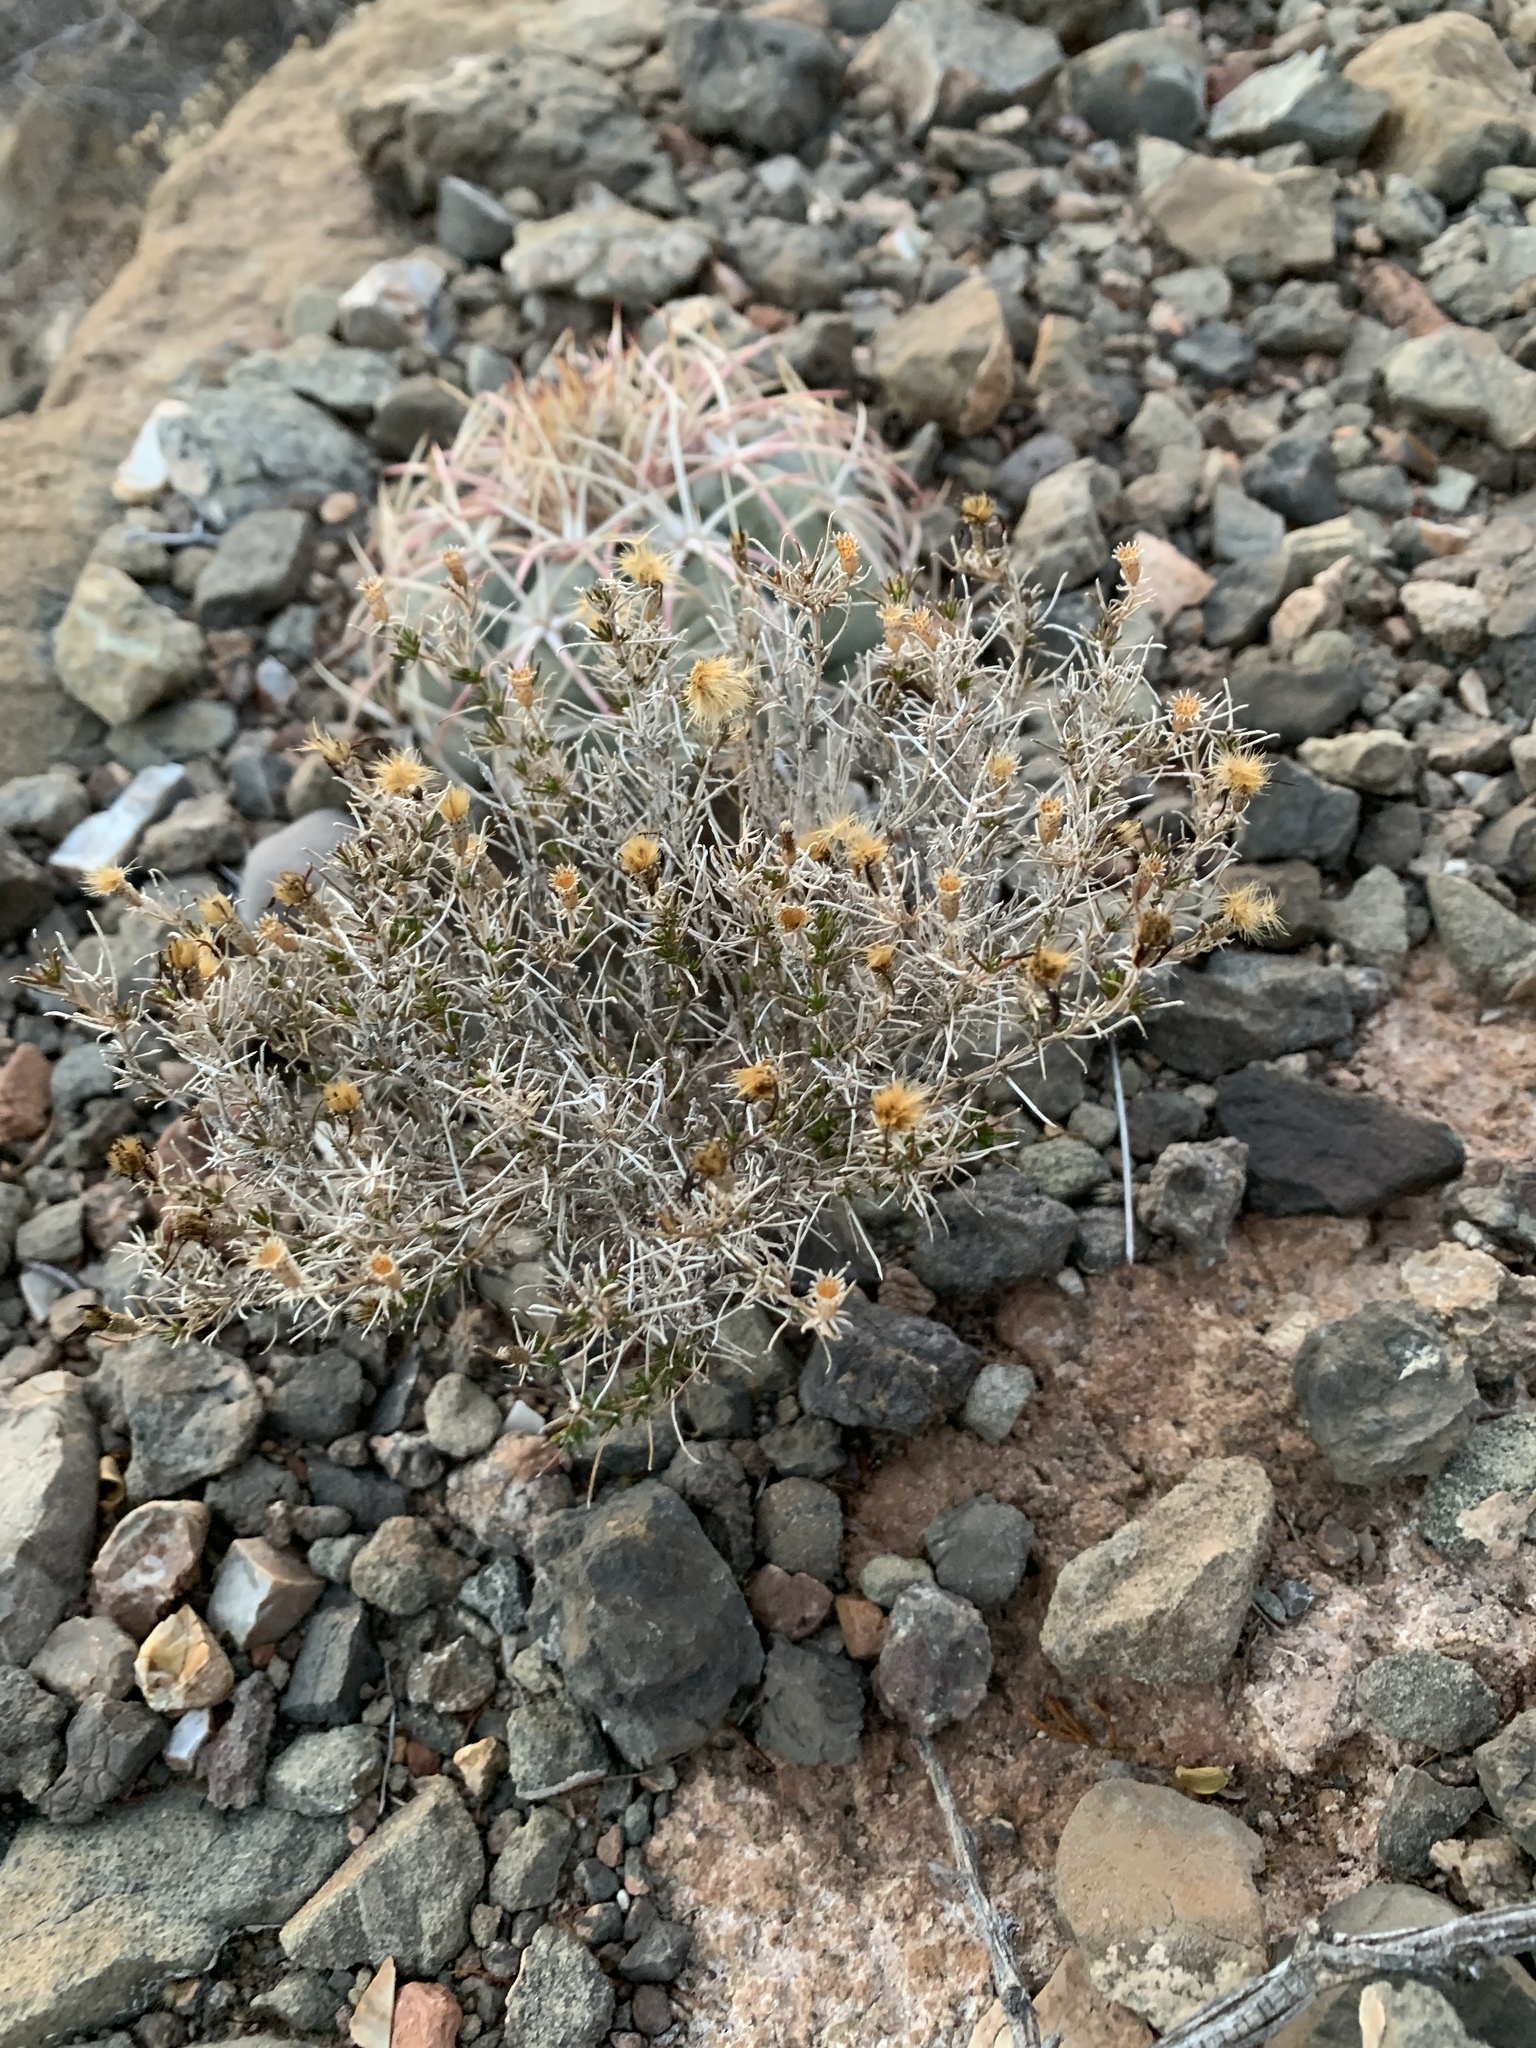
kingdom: Plantae
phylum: Tracheophyta
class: Magnoliopsida
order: Asterales
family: Asteraceae
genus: Thymophylla
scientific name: Thymophylla acerosa
